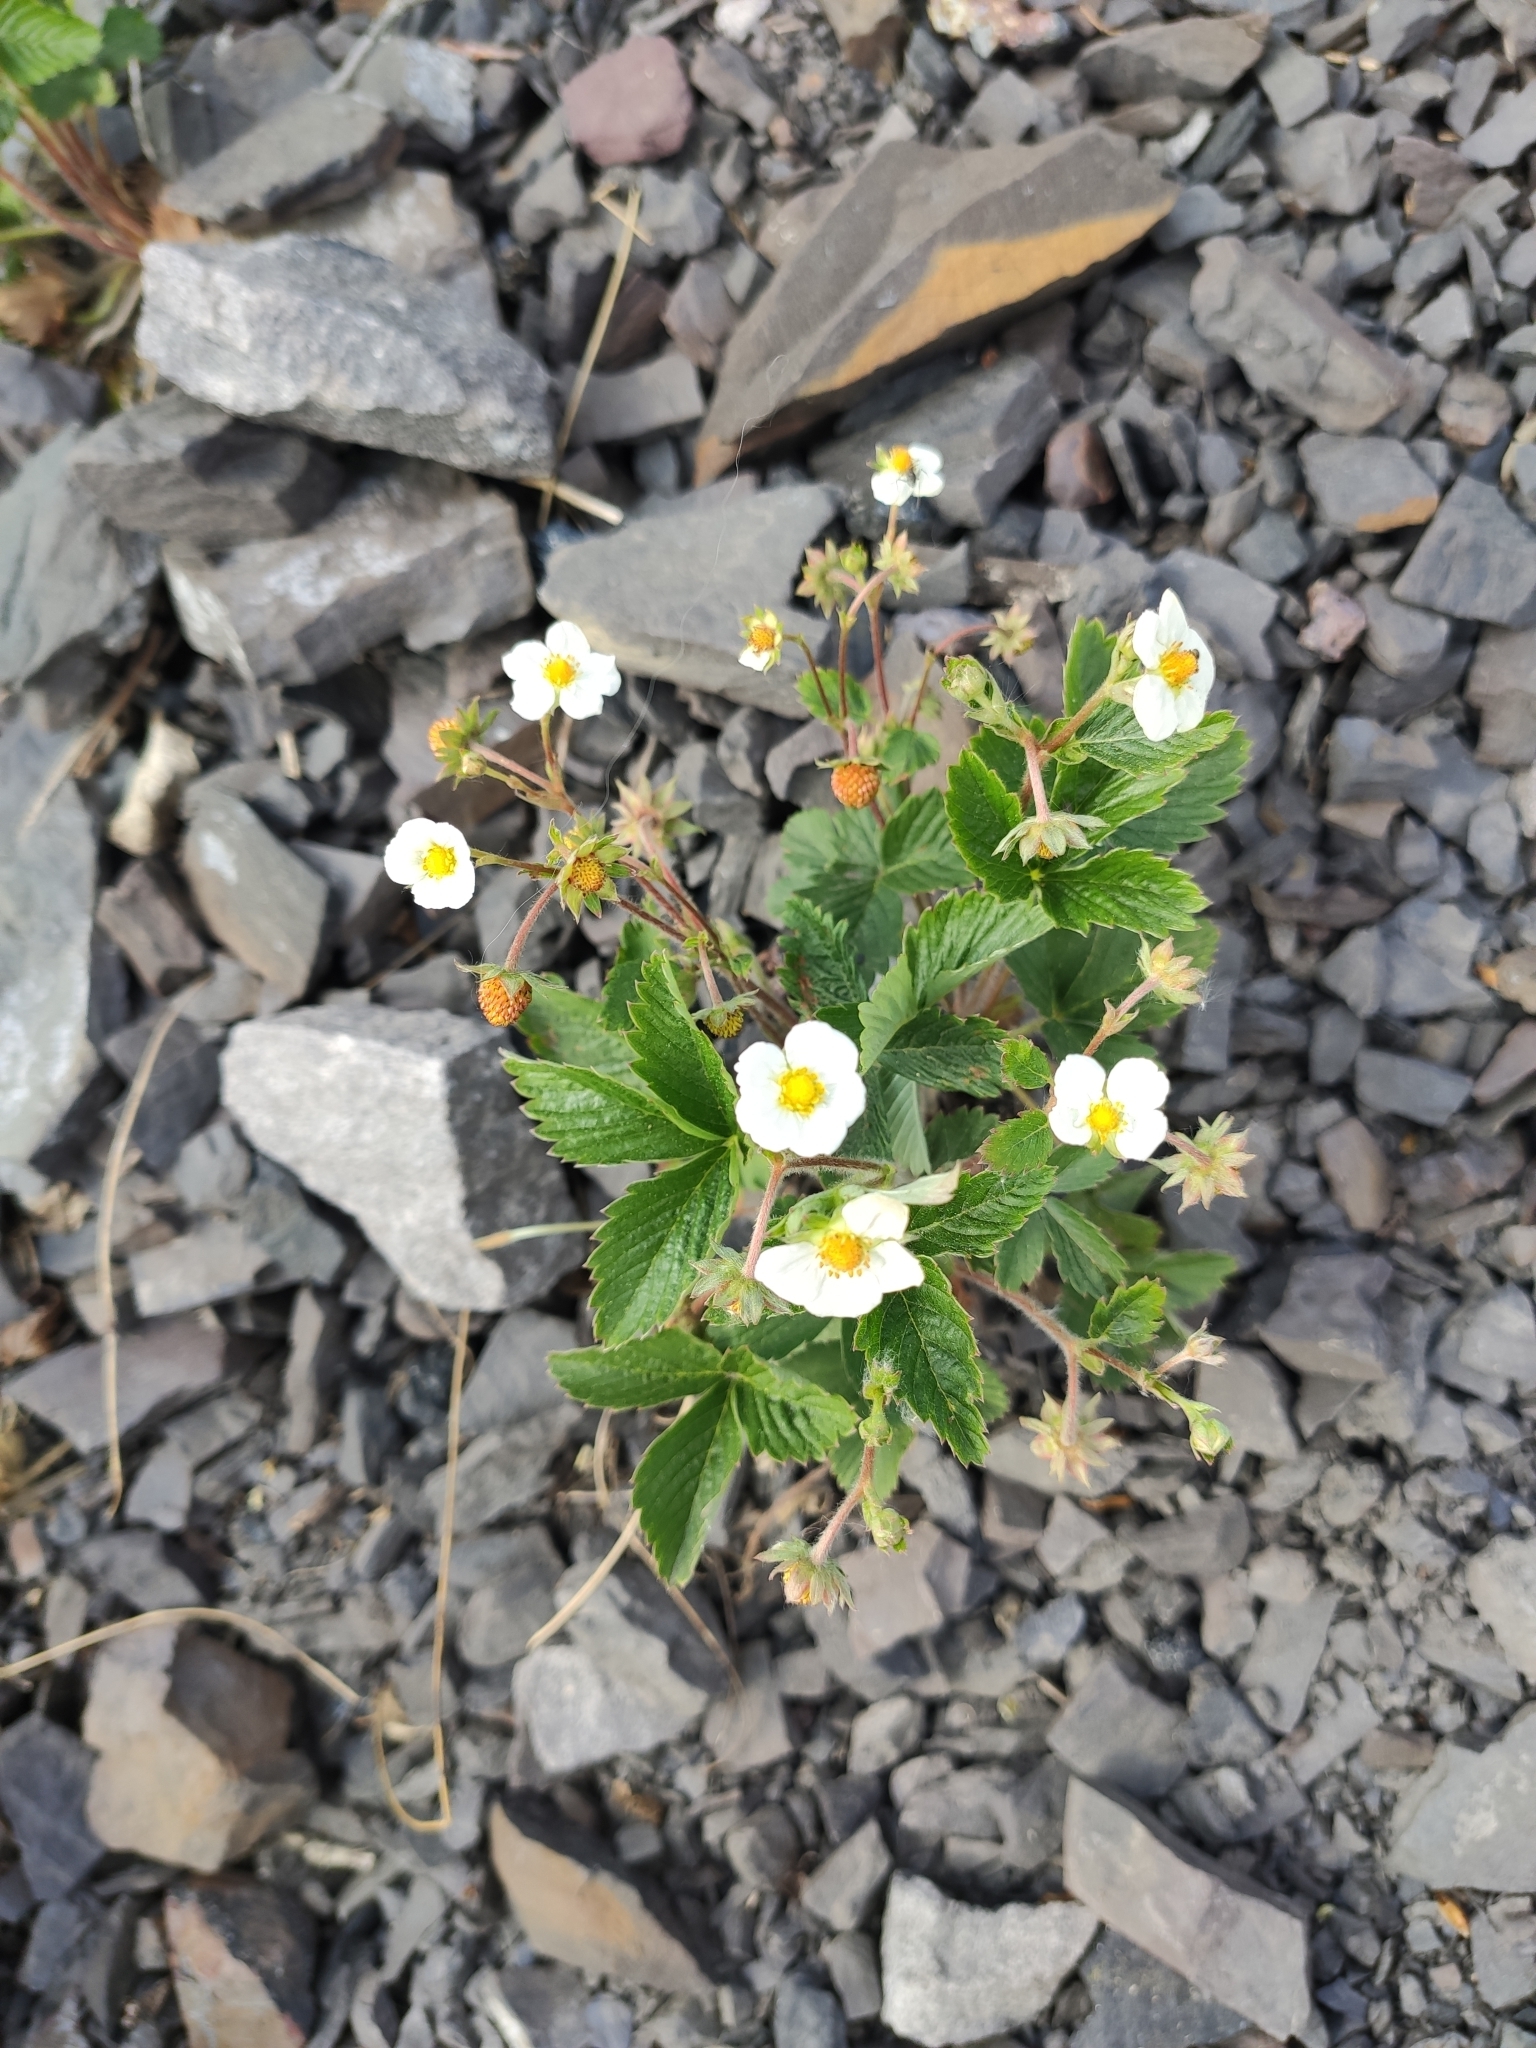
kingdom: Plantae
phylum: Tracheophyta
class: Magnoliopsida
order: Rosales
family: Rosaceae
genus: Fragaria
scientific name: Fragaria vesca
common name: Wild strawberry
